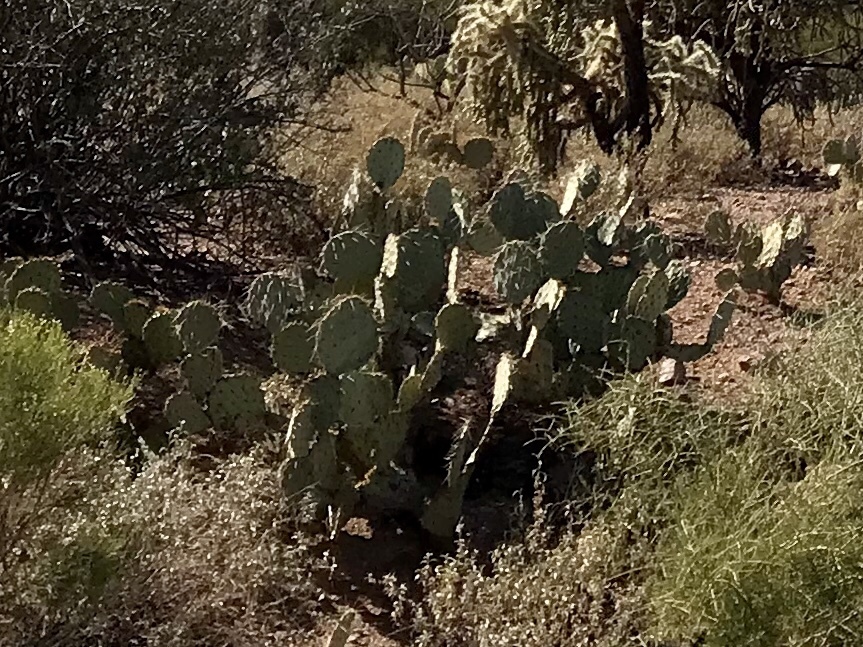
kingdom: Plantae
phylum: Tracheophyta
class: Magnoliopsida
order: Caryophyllales
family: Cactaceae
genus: Opuntia
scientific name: Opuntia engelmannii
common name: Cactus-apple
